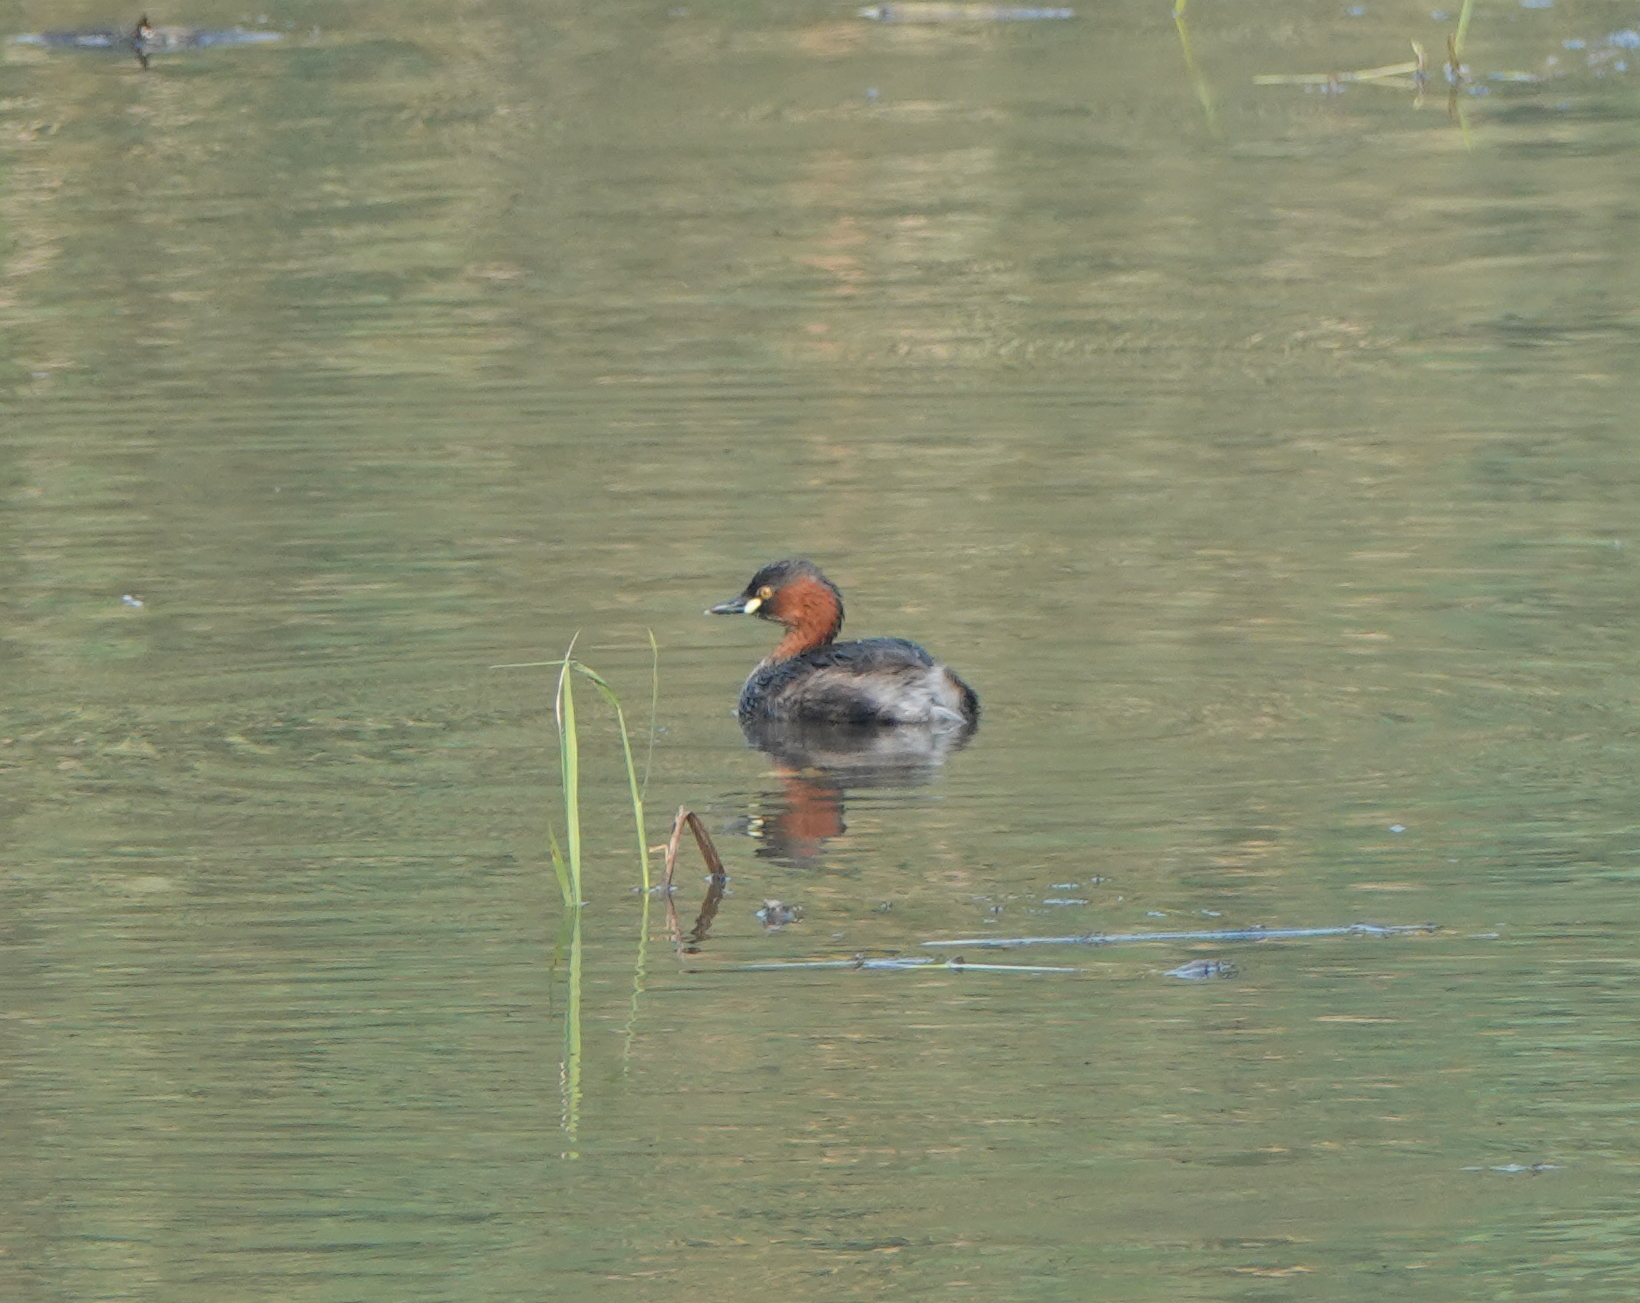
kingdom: Animalia
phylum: Chordata
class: Aves
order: Podicipediformes
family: Podicipedidae
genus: Tachybaptus
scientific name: Tachybaptus ruficollis
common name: Little grebe
